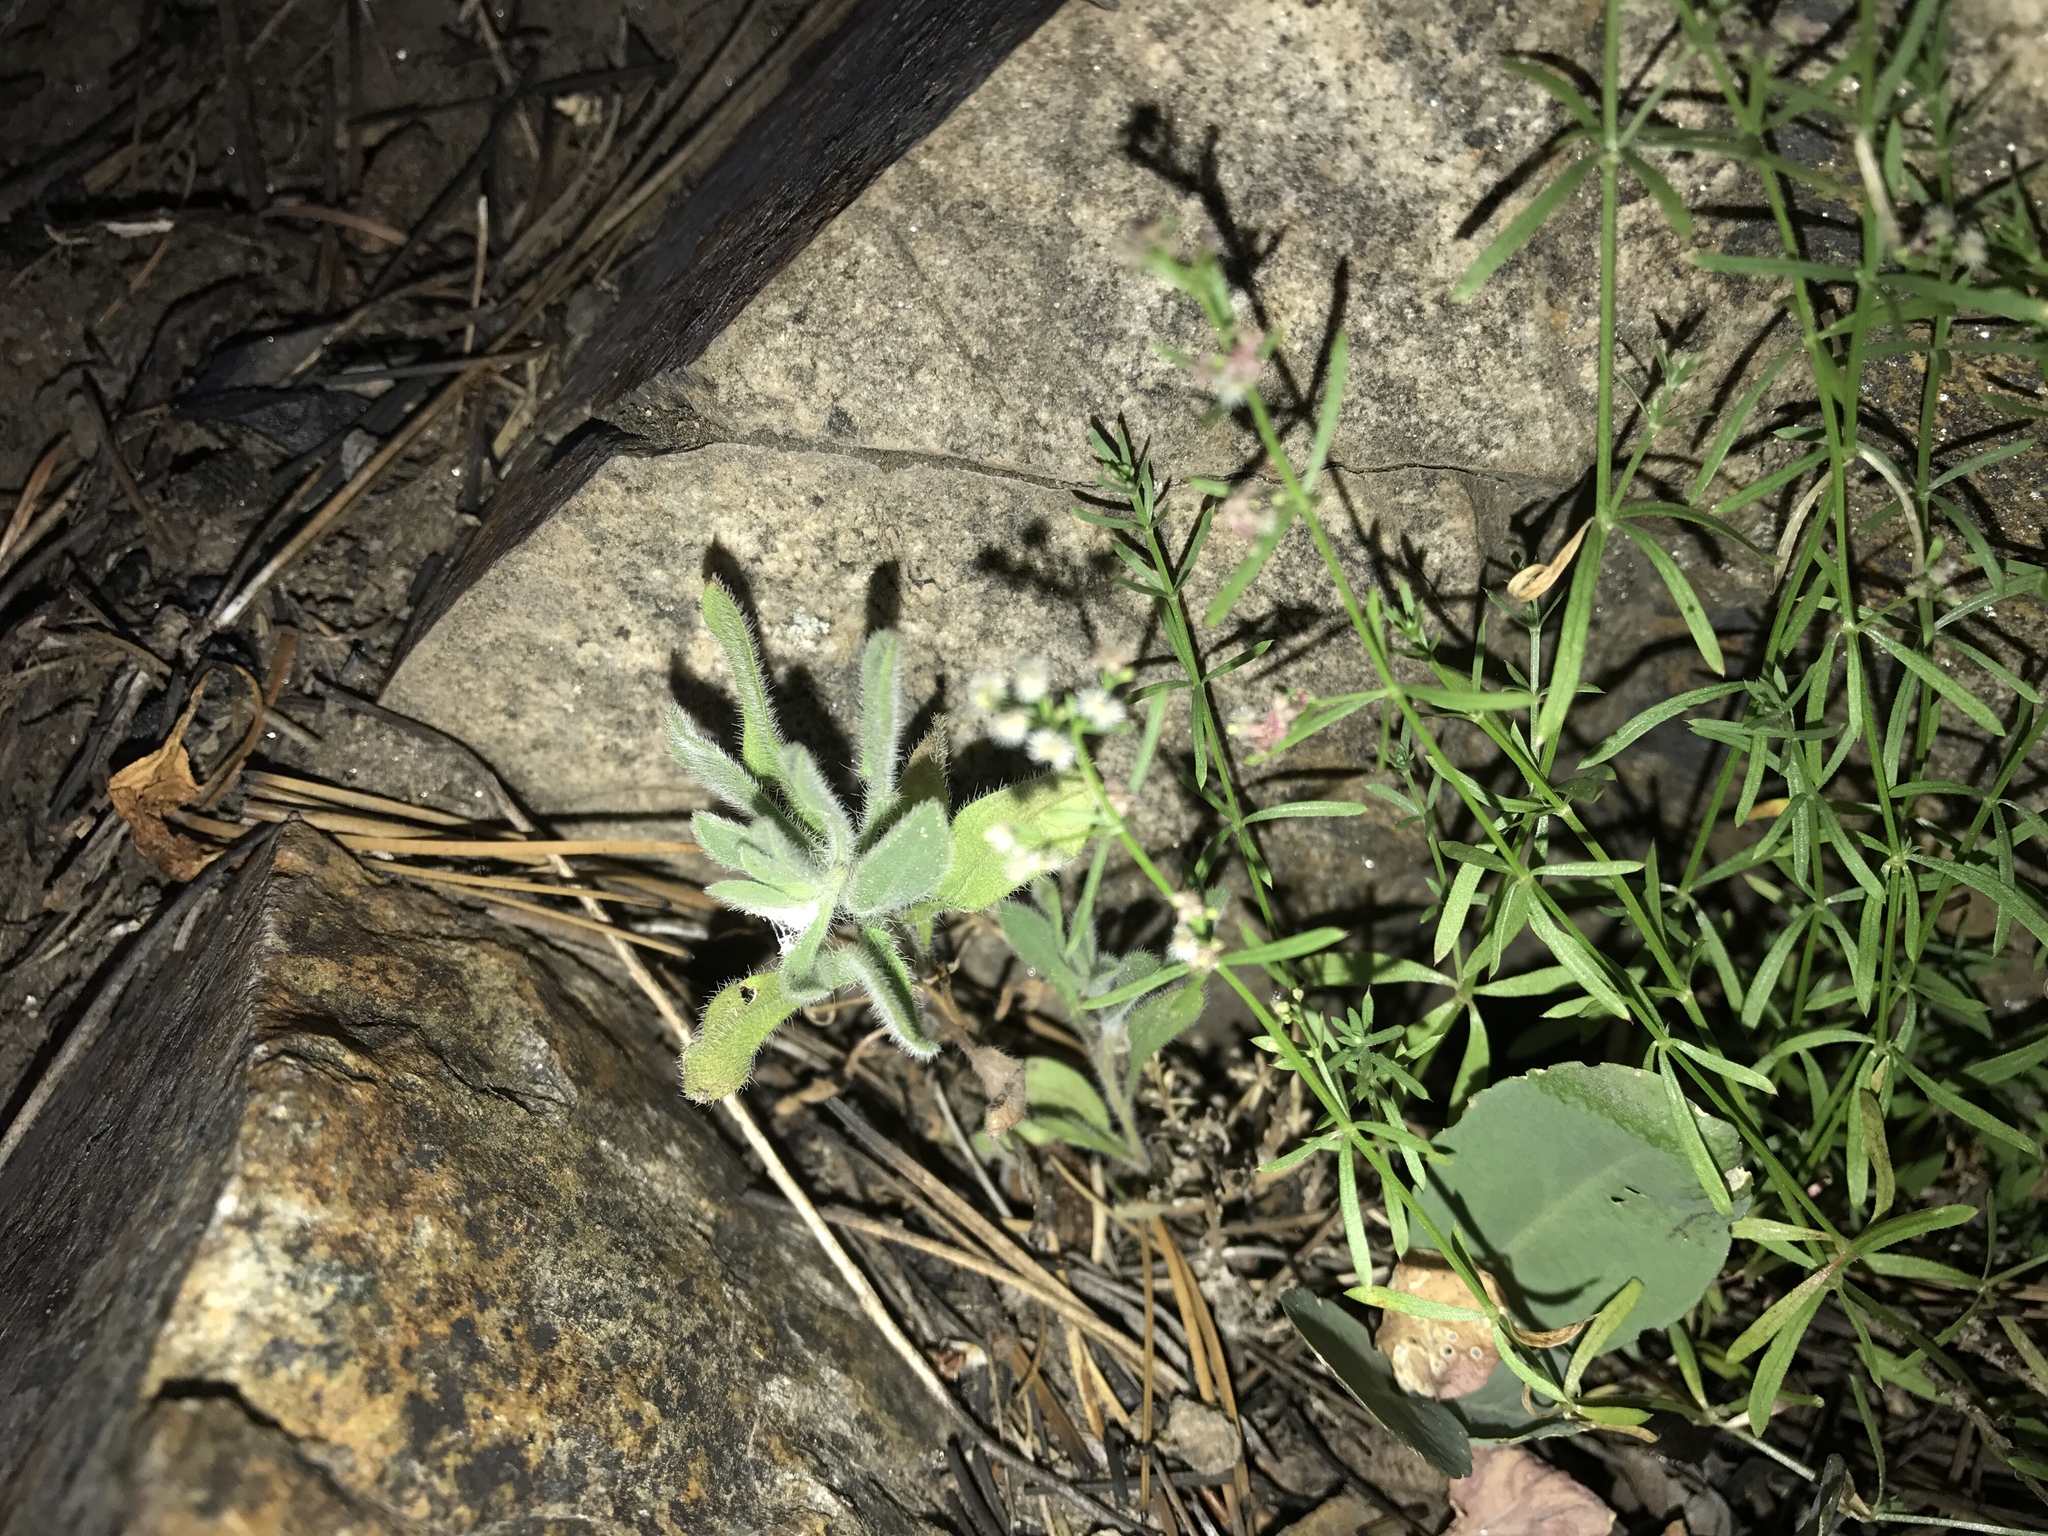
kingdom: Plantae
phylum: Tracheophyta
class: Magnoliopsida
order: Gentianales
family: Rubiaceae
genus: Galium
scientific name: Galium wrightii
